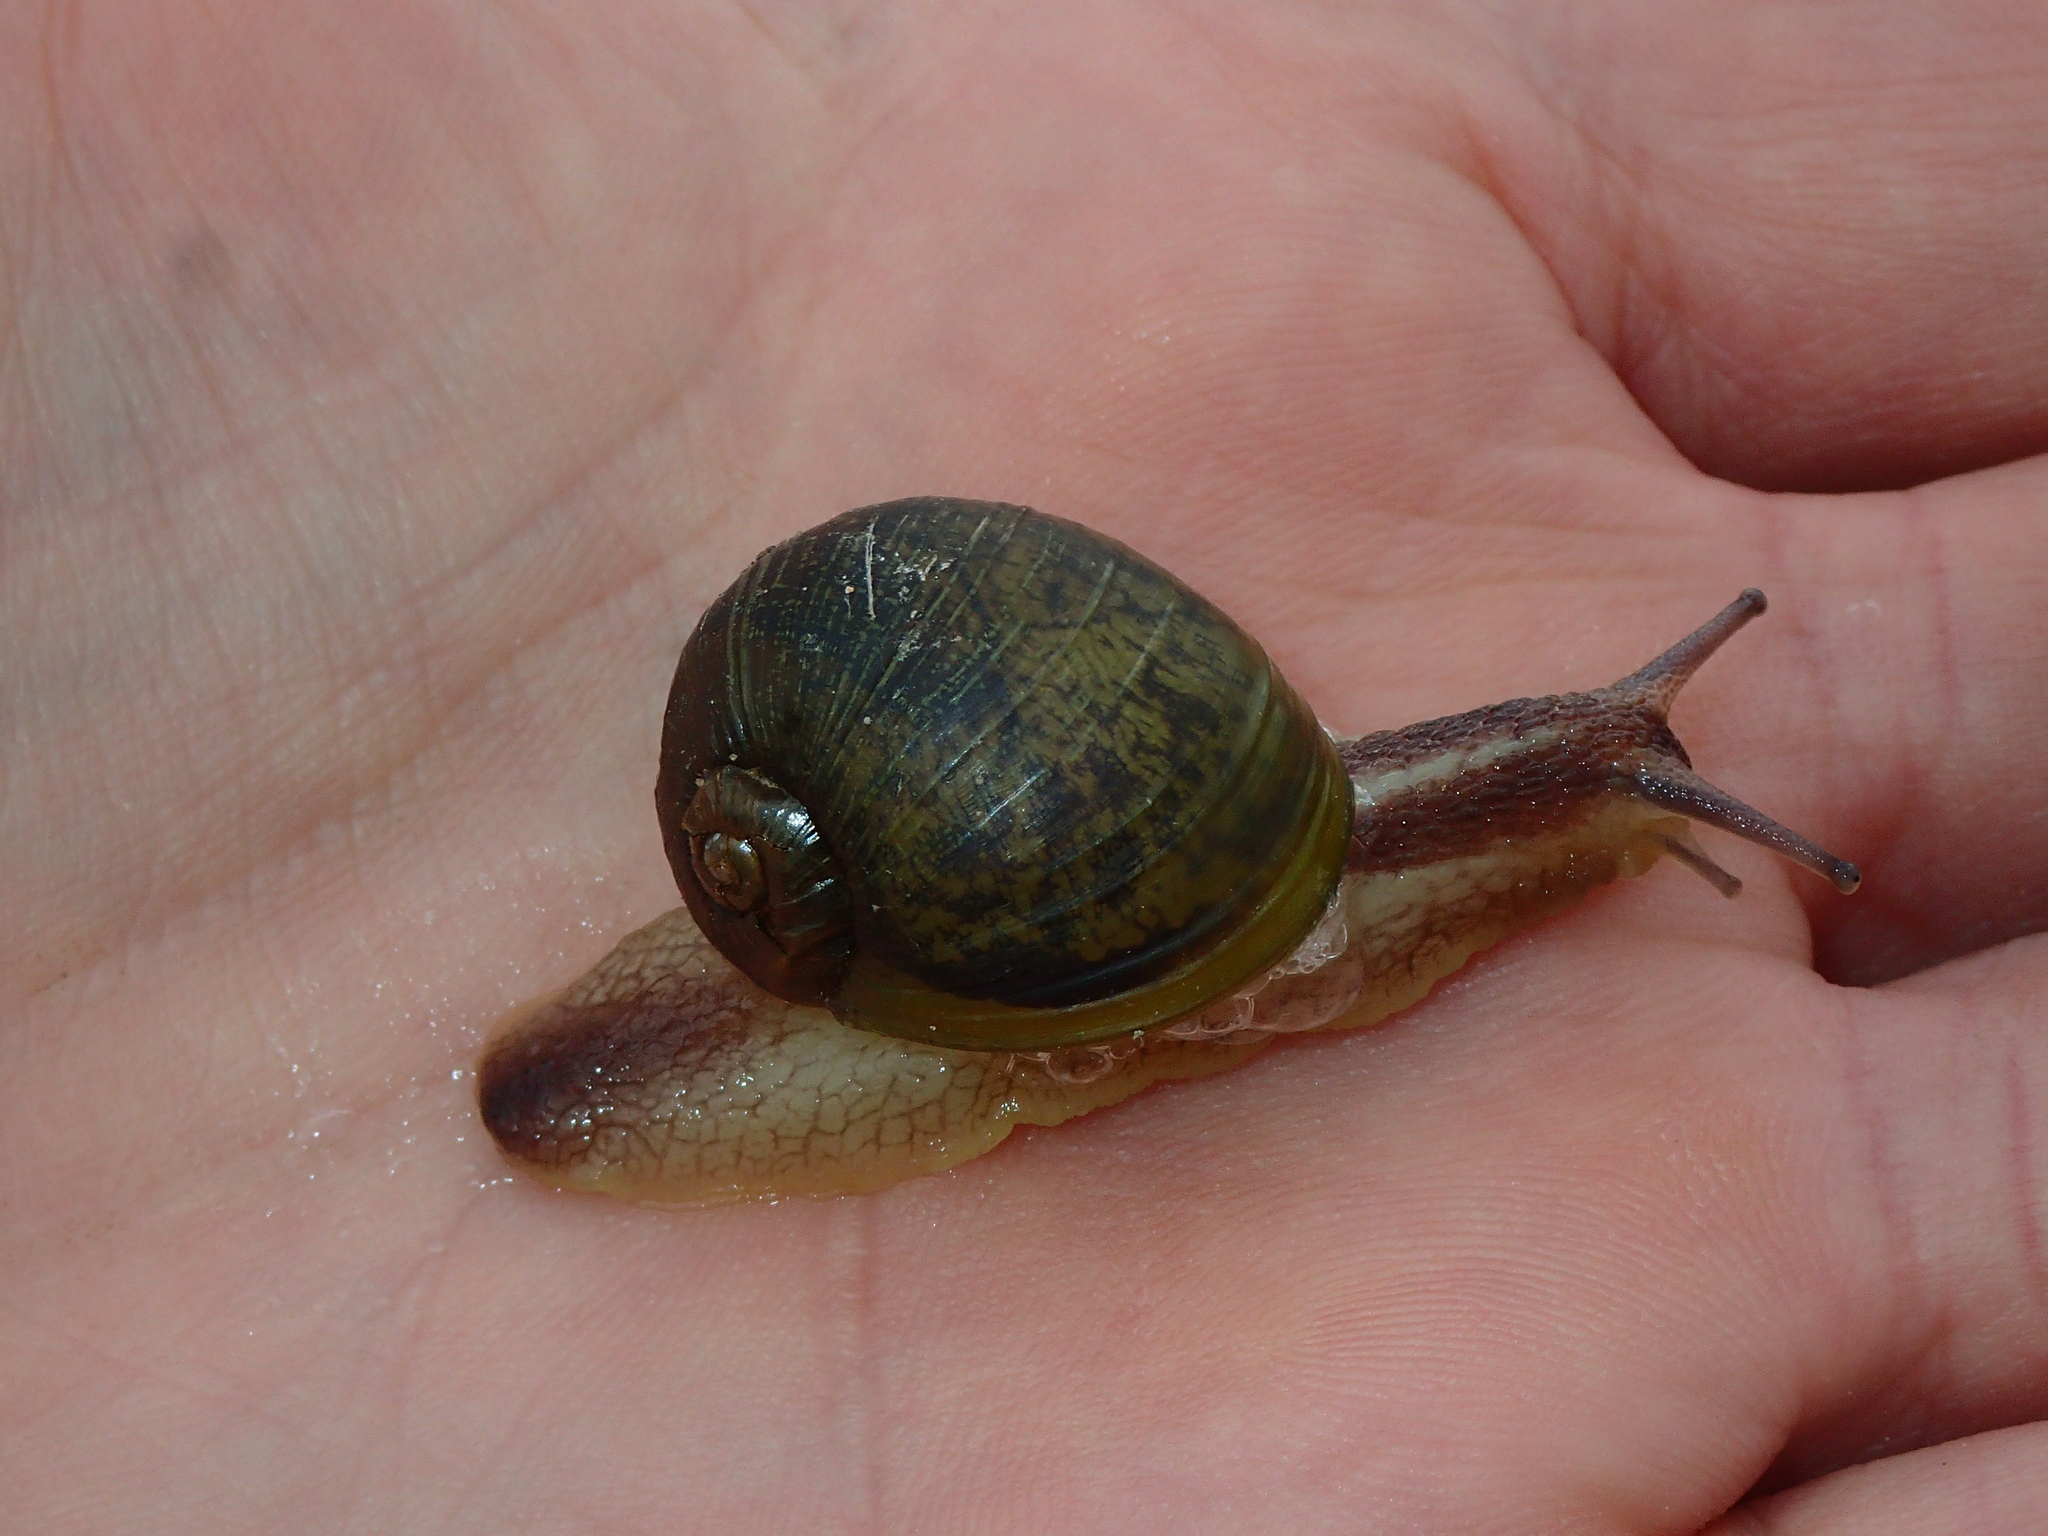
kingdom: Animalia
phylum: Mollusca
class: Gastropoda
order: Stylommatophora
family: Helicidae
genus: Cantareus
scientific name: Cantareus apertus
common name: Green gardensnail
